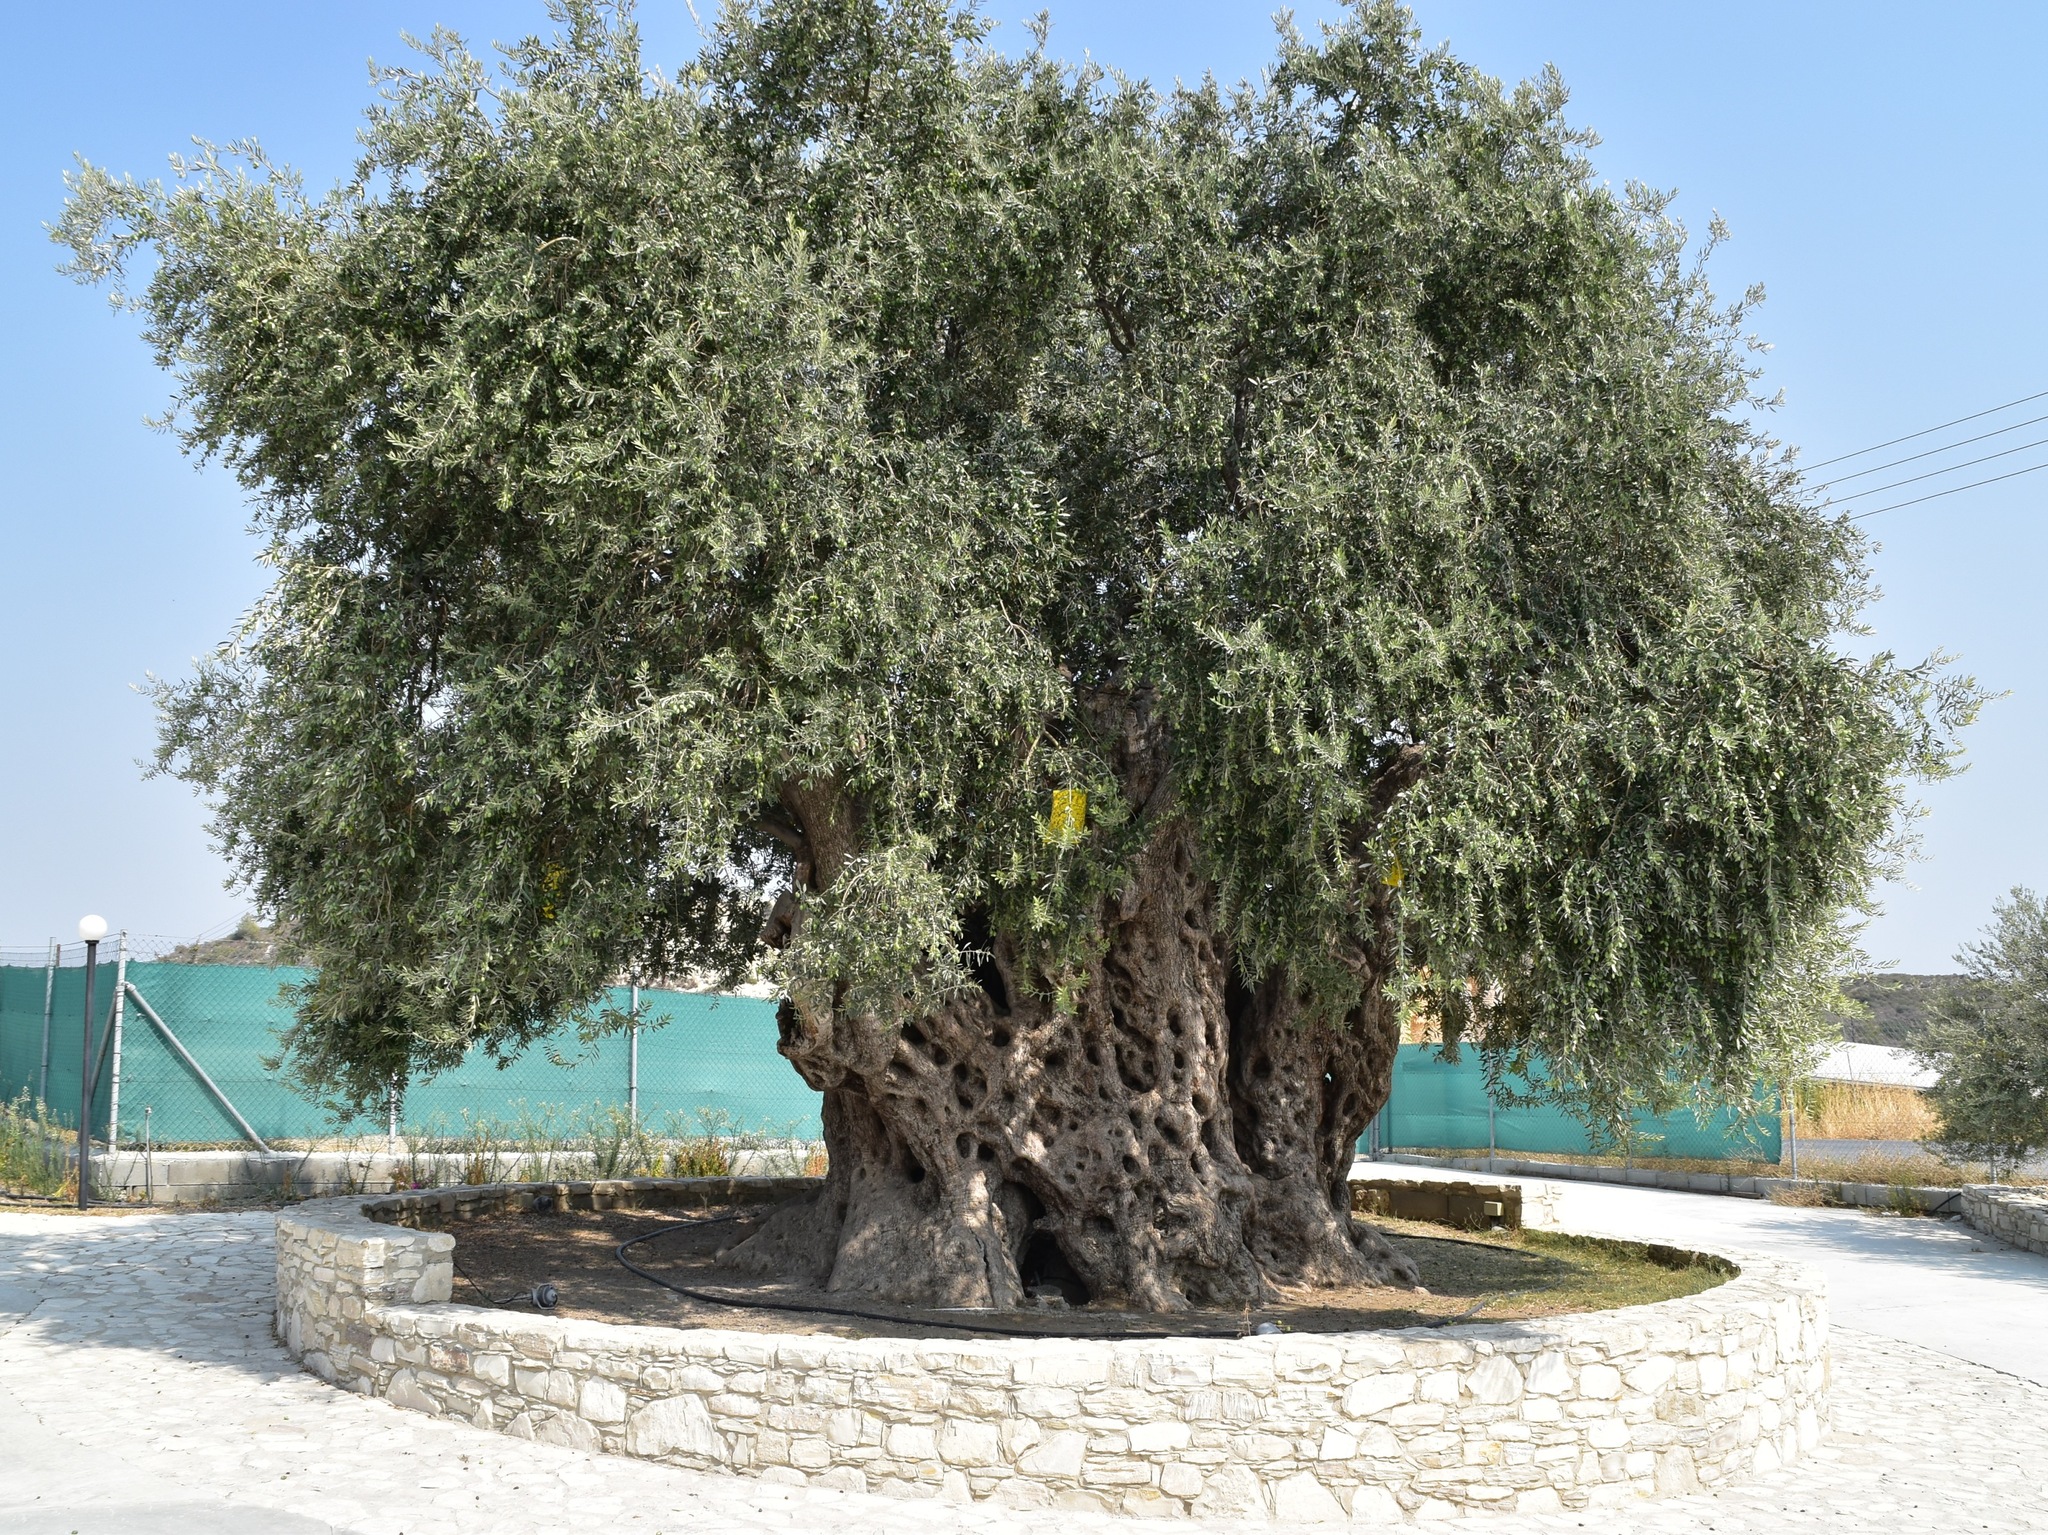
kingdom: Plantae
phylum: Tracheophyta
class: Magnoliopsida
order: Lamiales
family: Oleaceae
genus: Olea
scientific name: Olea europaea
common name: Olive
